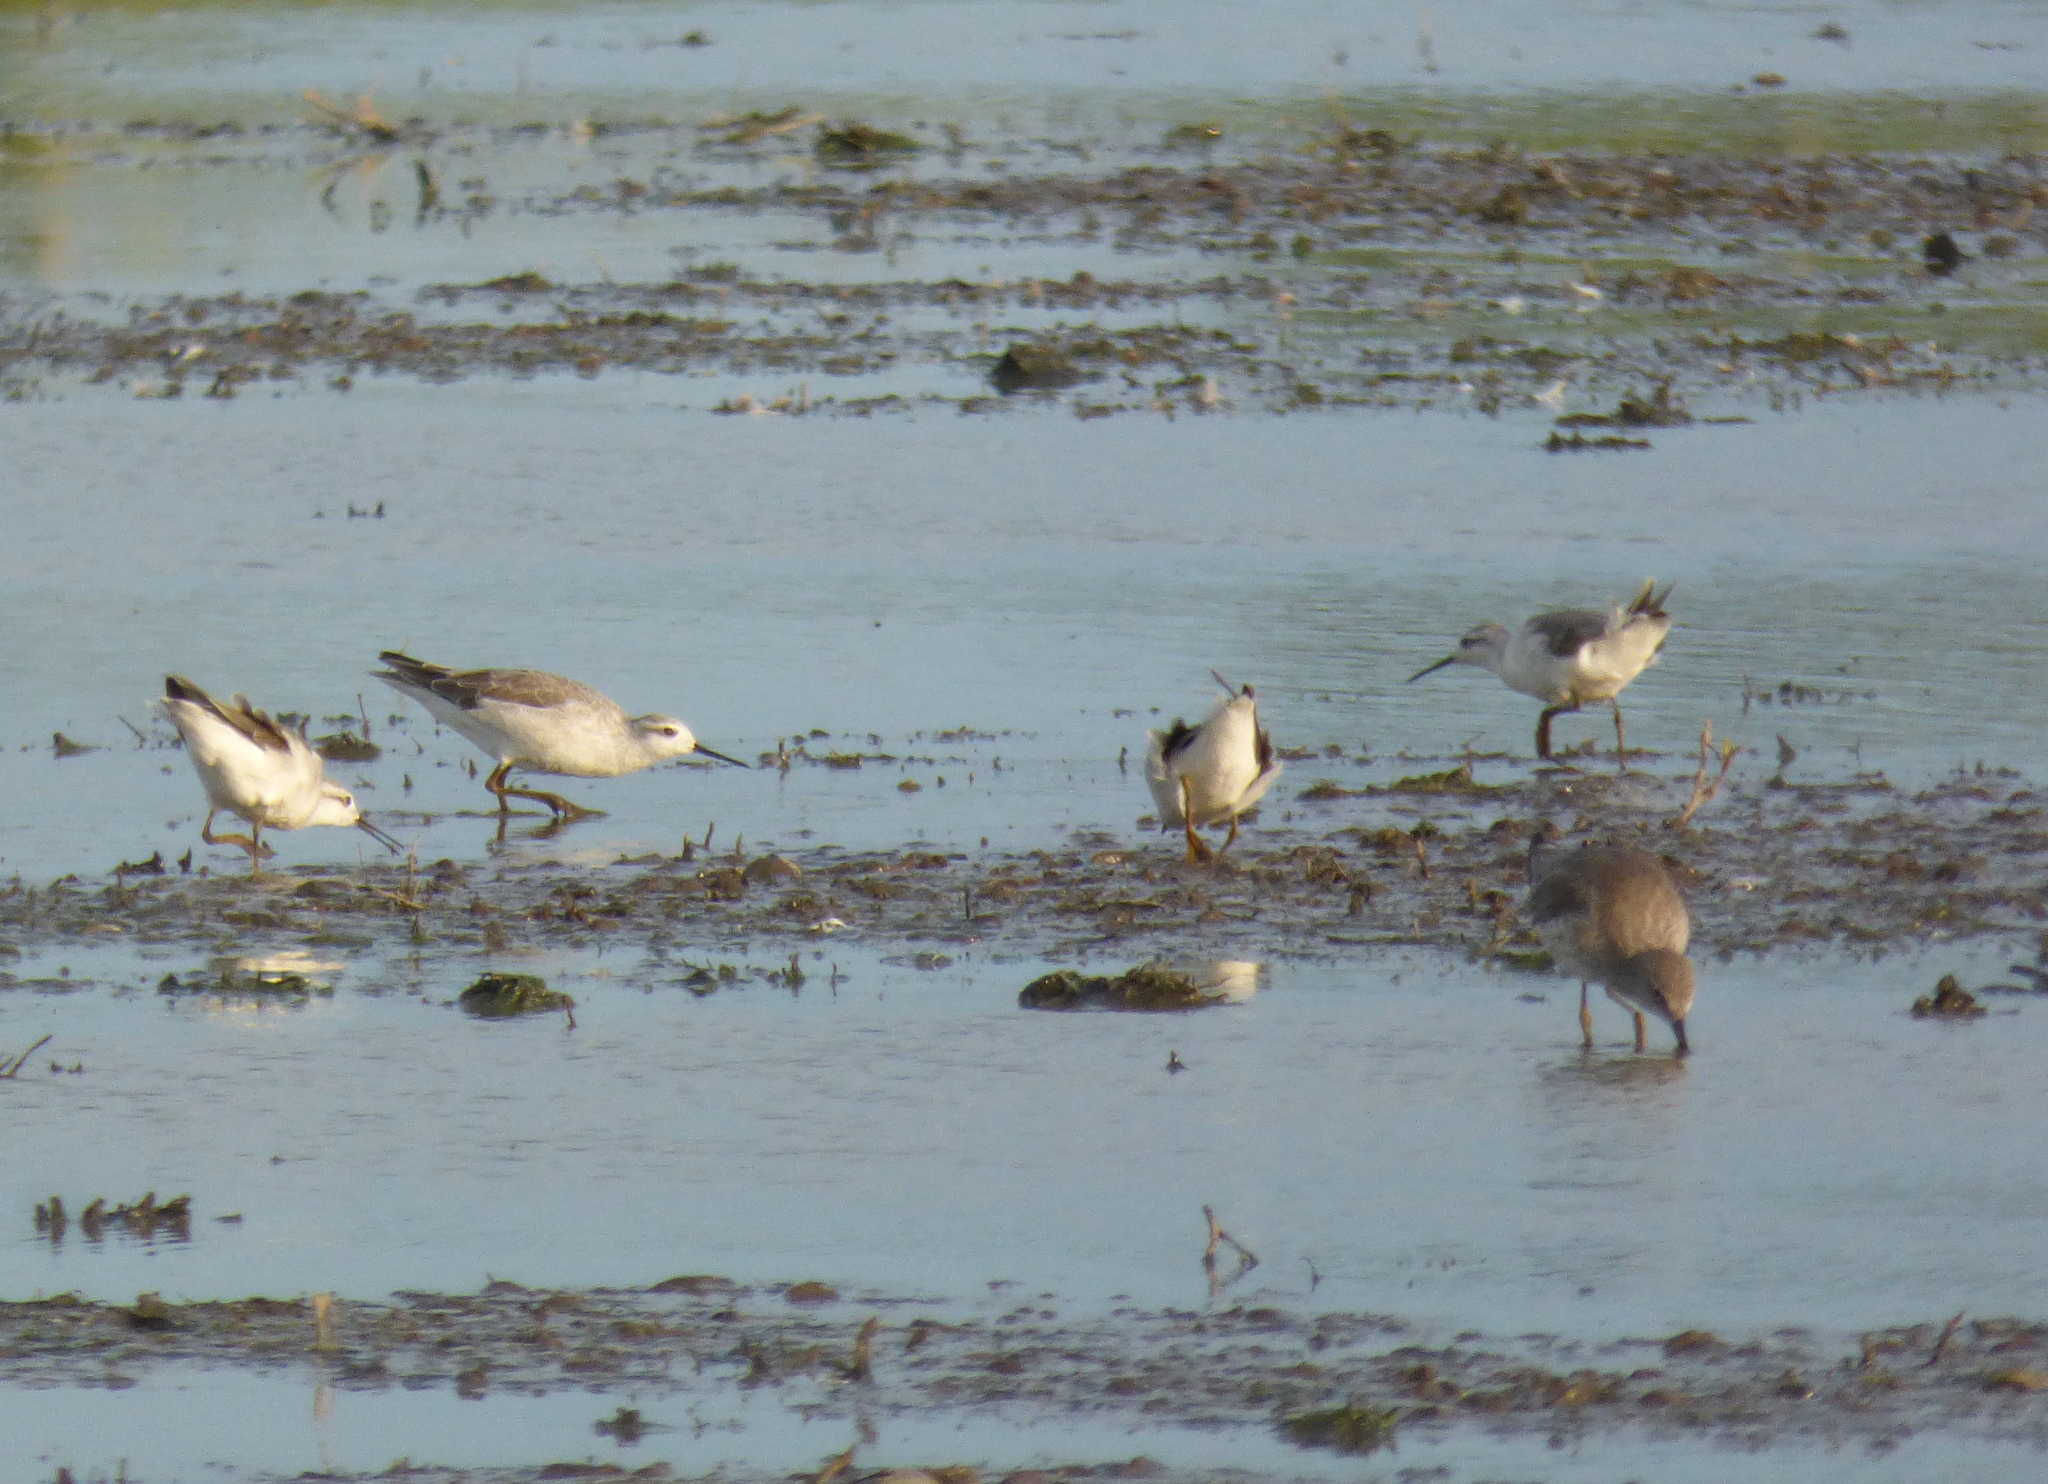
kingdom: Animalia
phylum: Chordata
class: Aves
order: Charadriiformes
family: Scolopacidae
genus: Phalaropus
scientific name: Phalaropus tricolor
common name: Wilson's phalarope
